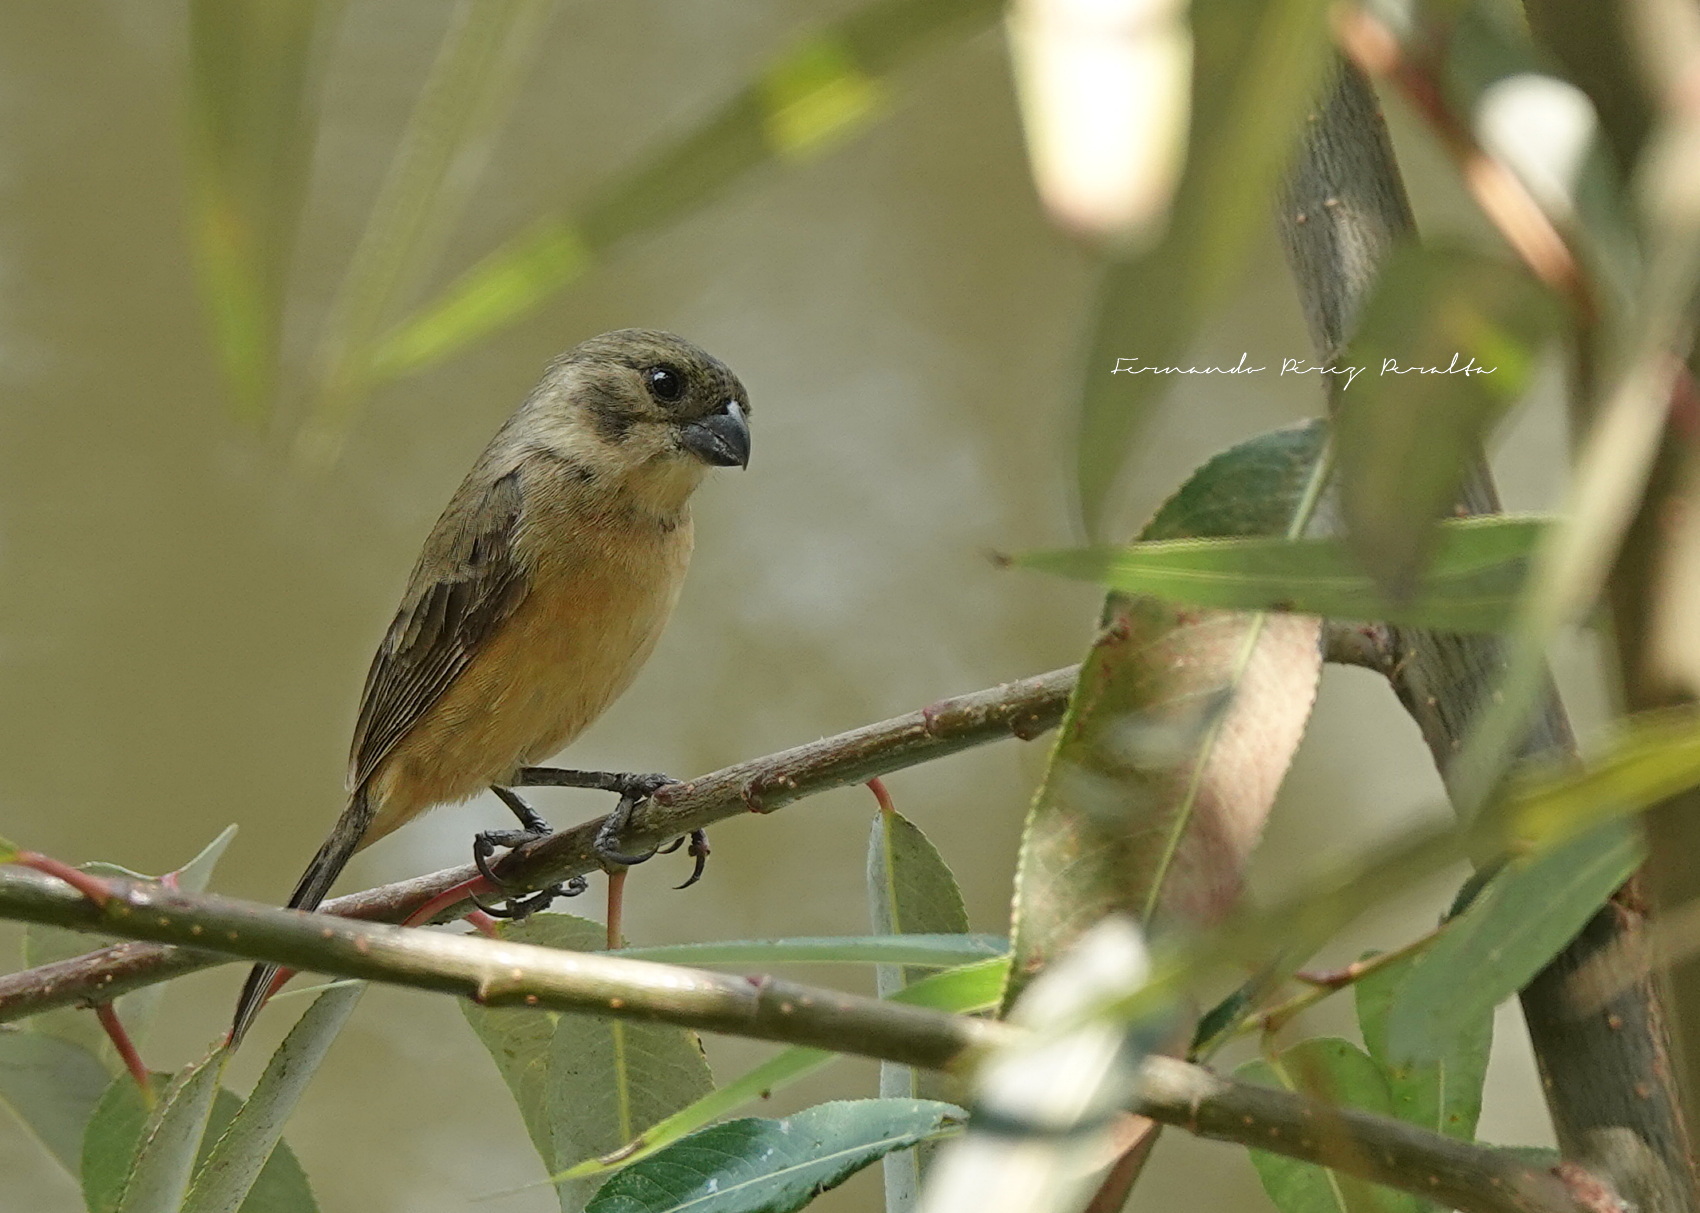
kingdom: Animalia
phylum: Chordata
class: Aves
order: Passeriformes
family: Thraupidae
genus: Sporophila
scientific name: Sporophila torqueola
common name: White-collared seedeater
